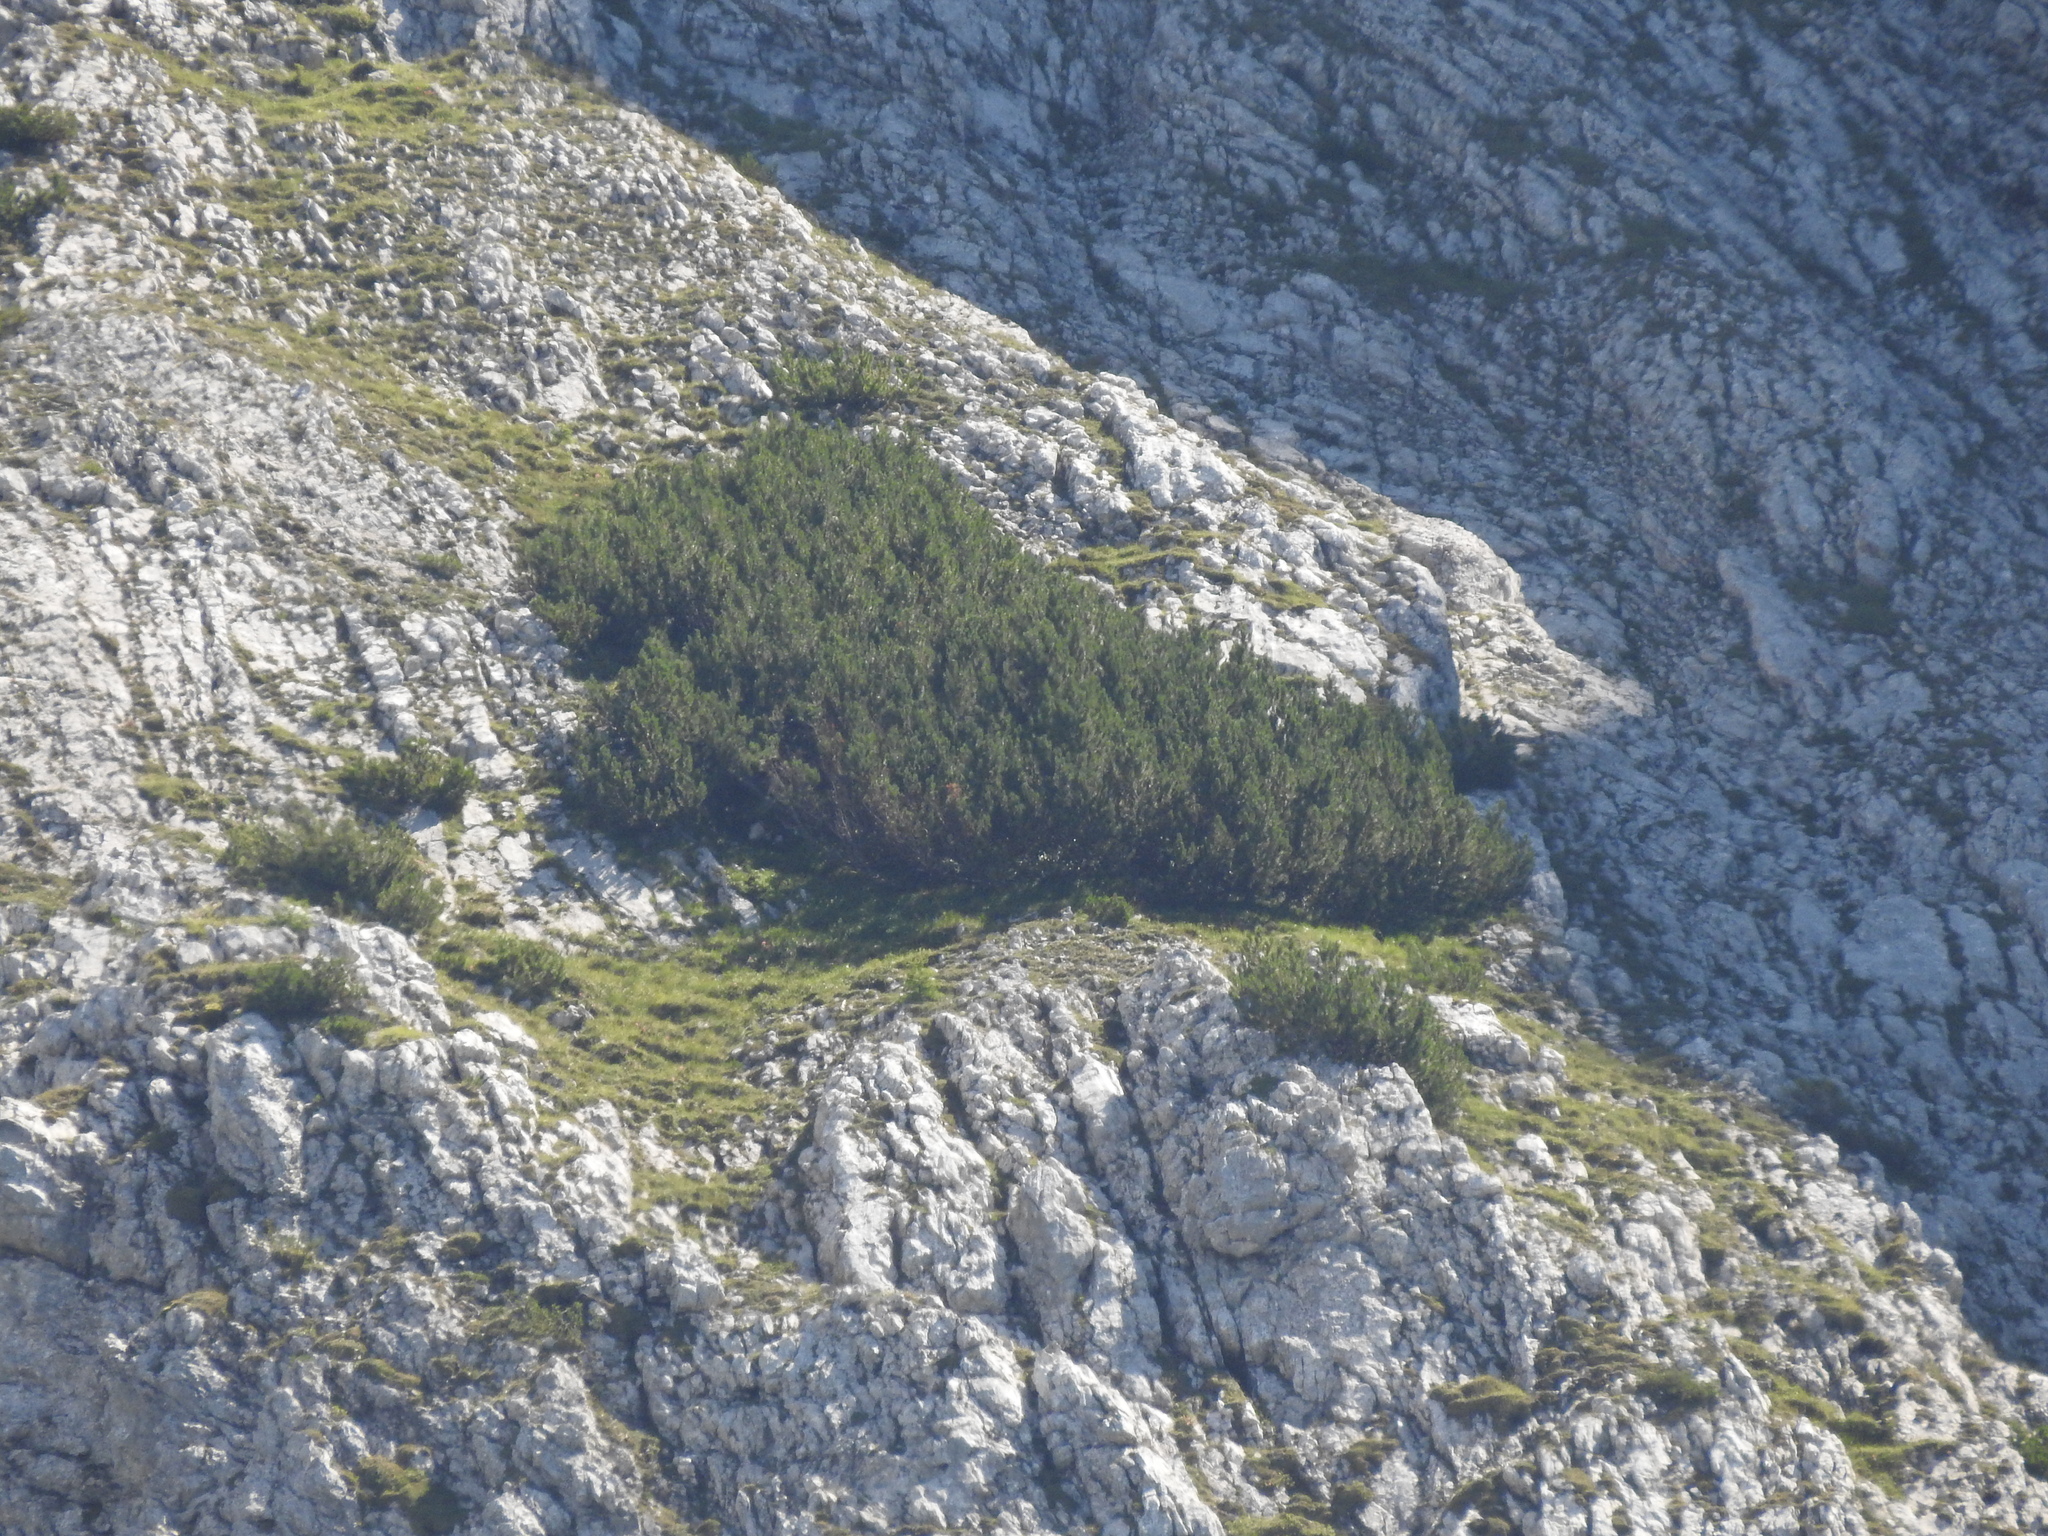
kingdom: Plantae
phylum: Tracheophyta
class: Pinopsida
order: Pinales
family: Pinaceae
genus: Pinus
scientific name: Pinus mugo
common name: Mugo pine
